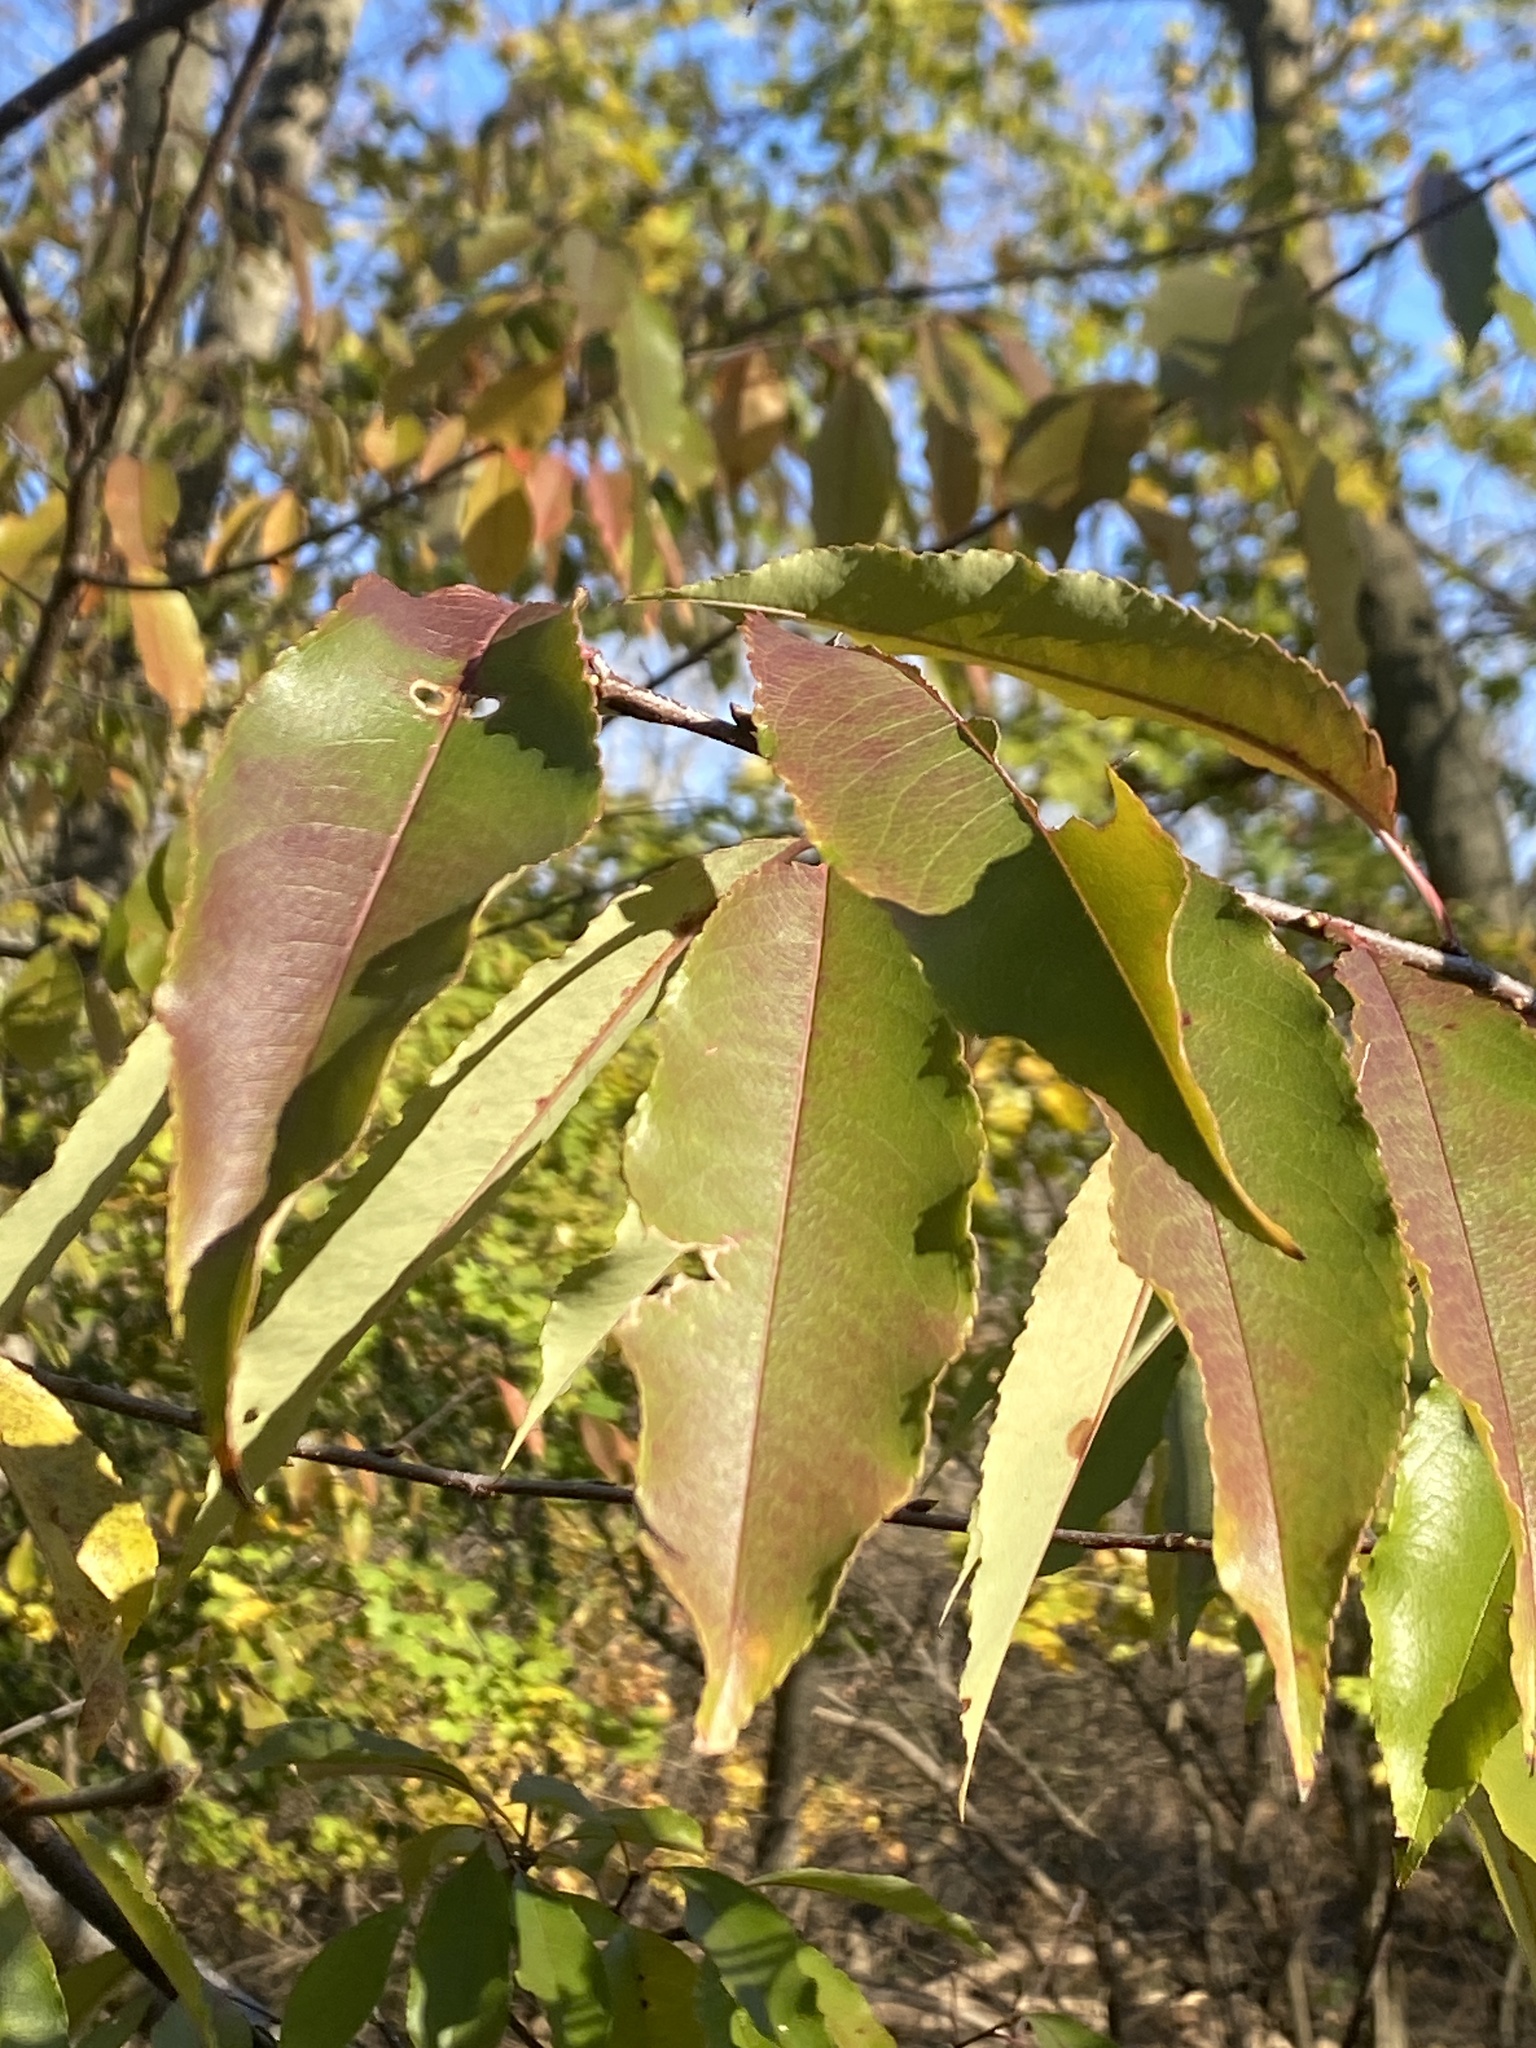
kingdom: Plantae
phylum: Tracheophyta
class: Magnoliopsida
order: Rosales
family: Rosaceae
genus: Prunus
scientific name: Prunus serotina
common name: Black cherry
